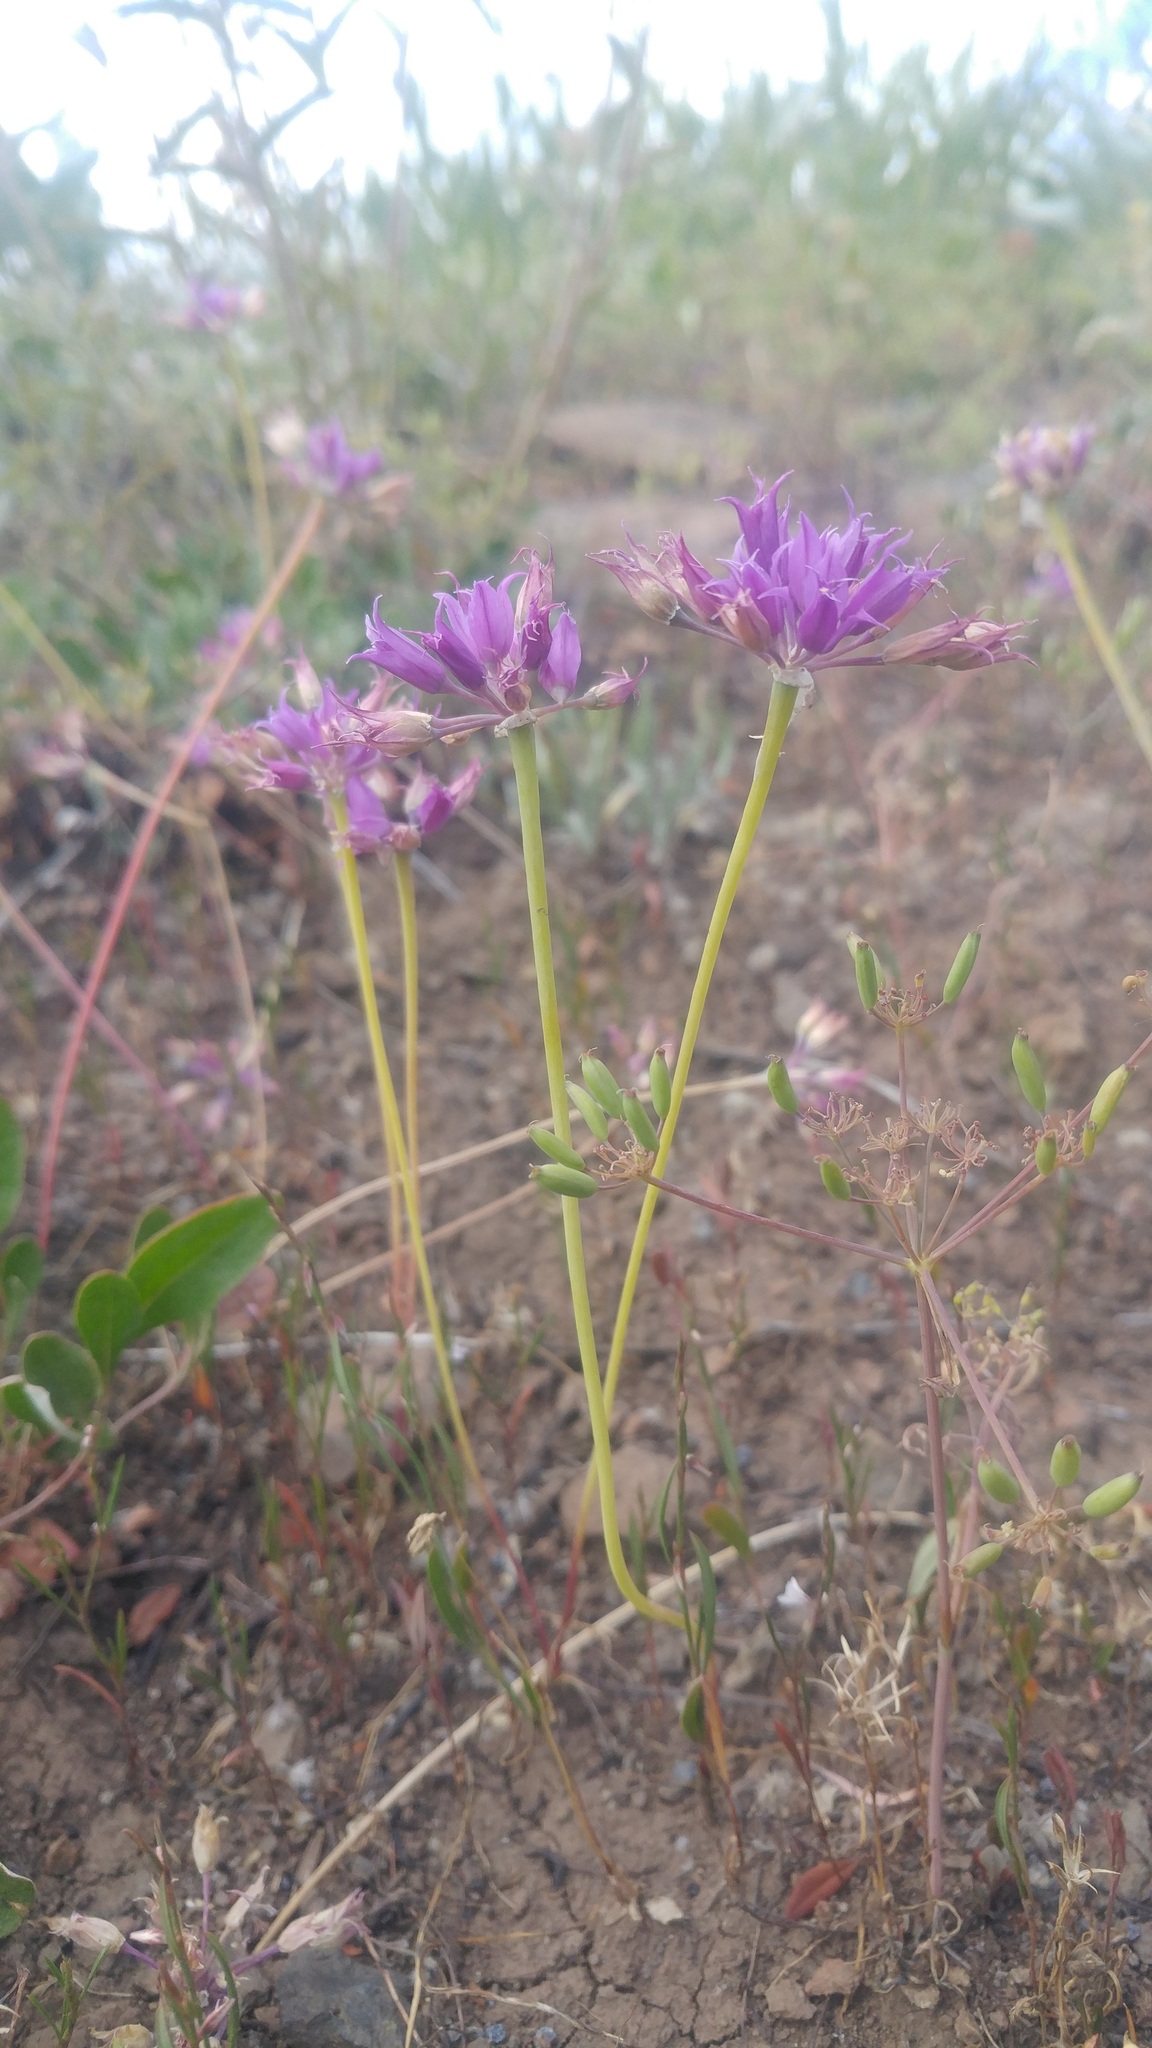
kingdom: Plantae
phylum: Tracheophyta
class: Liliopsida
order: Asparagales
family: Amaryllidaceae
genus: Allium
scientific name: Allium acuminatum
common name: Hooker's onion
